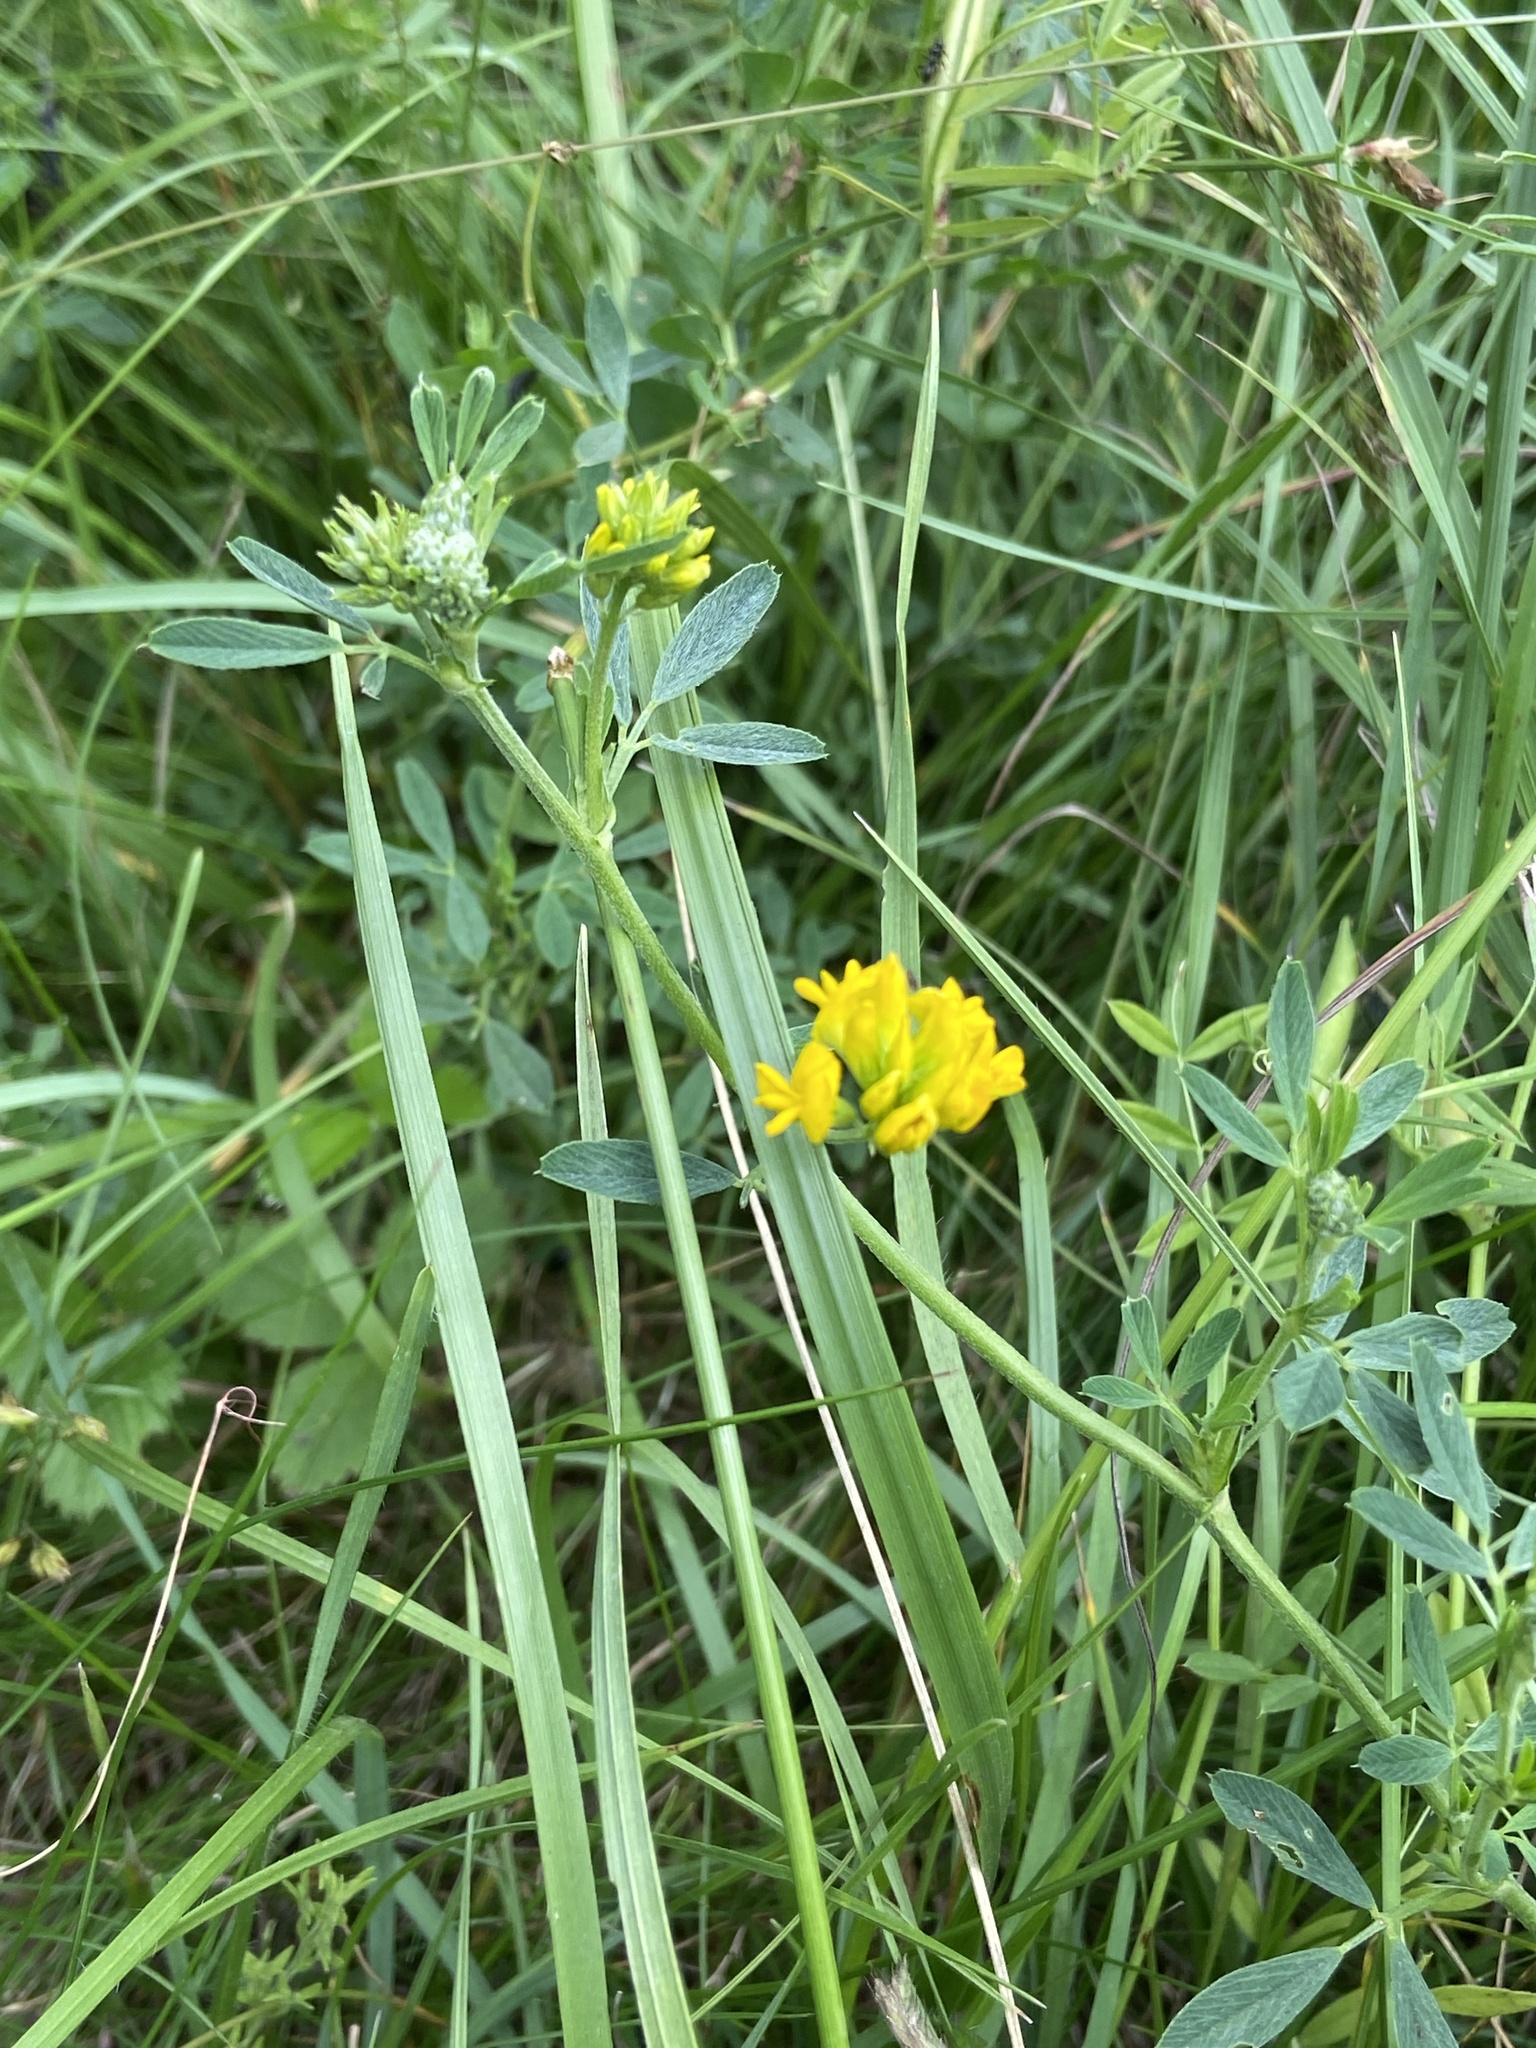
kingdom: Plantae
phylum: Tracheophyta
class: Magnoliopsida
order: Fabales
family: Fabaceae
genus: Medicago
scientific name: Medicago falcata
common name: Sickle medick
